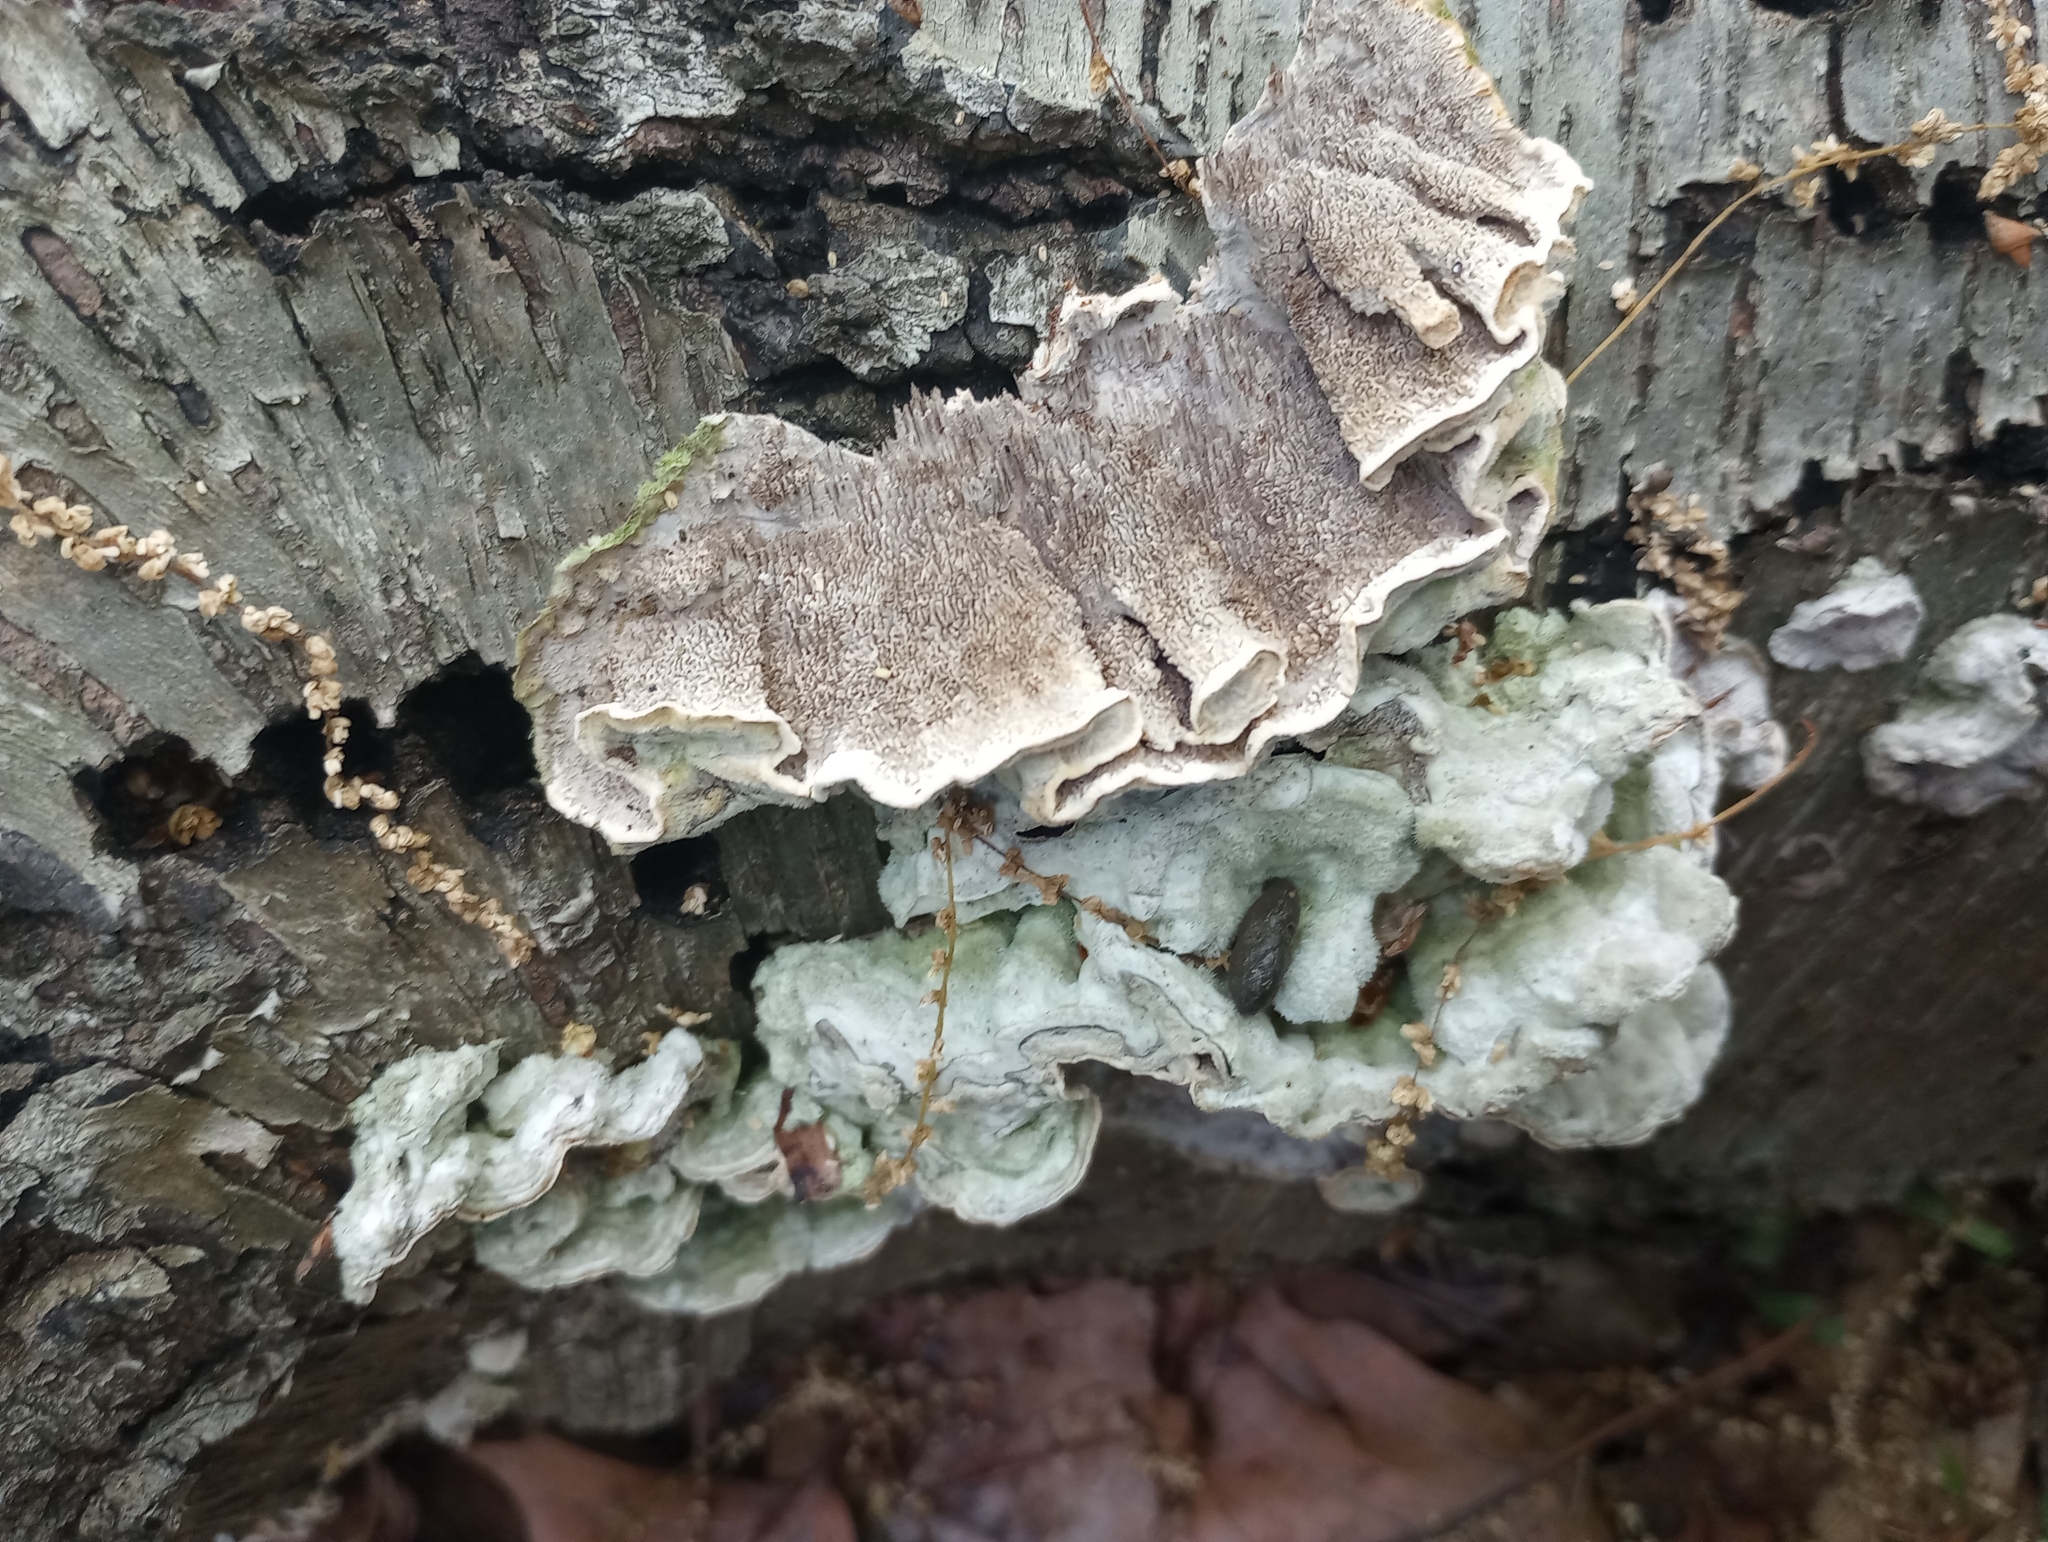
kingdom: Fungi
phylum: Basidiomycota
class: Agaricomycetes
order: Polyporales
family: Cerrenaceae
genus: Cerrena
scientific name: Cerrena unicolor
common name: Mossy maze polypore
